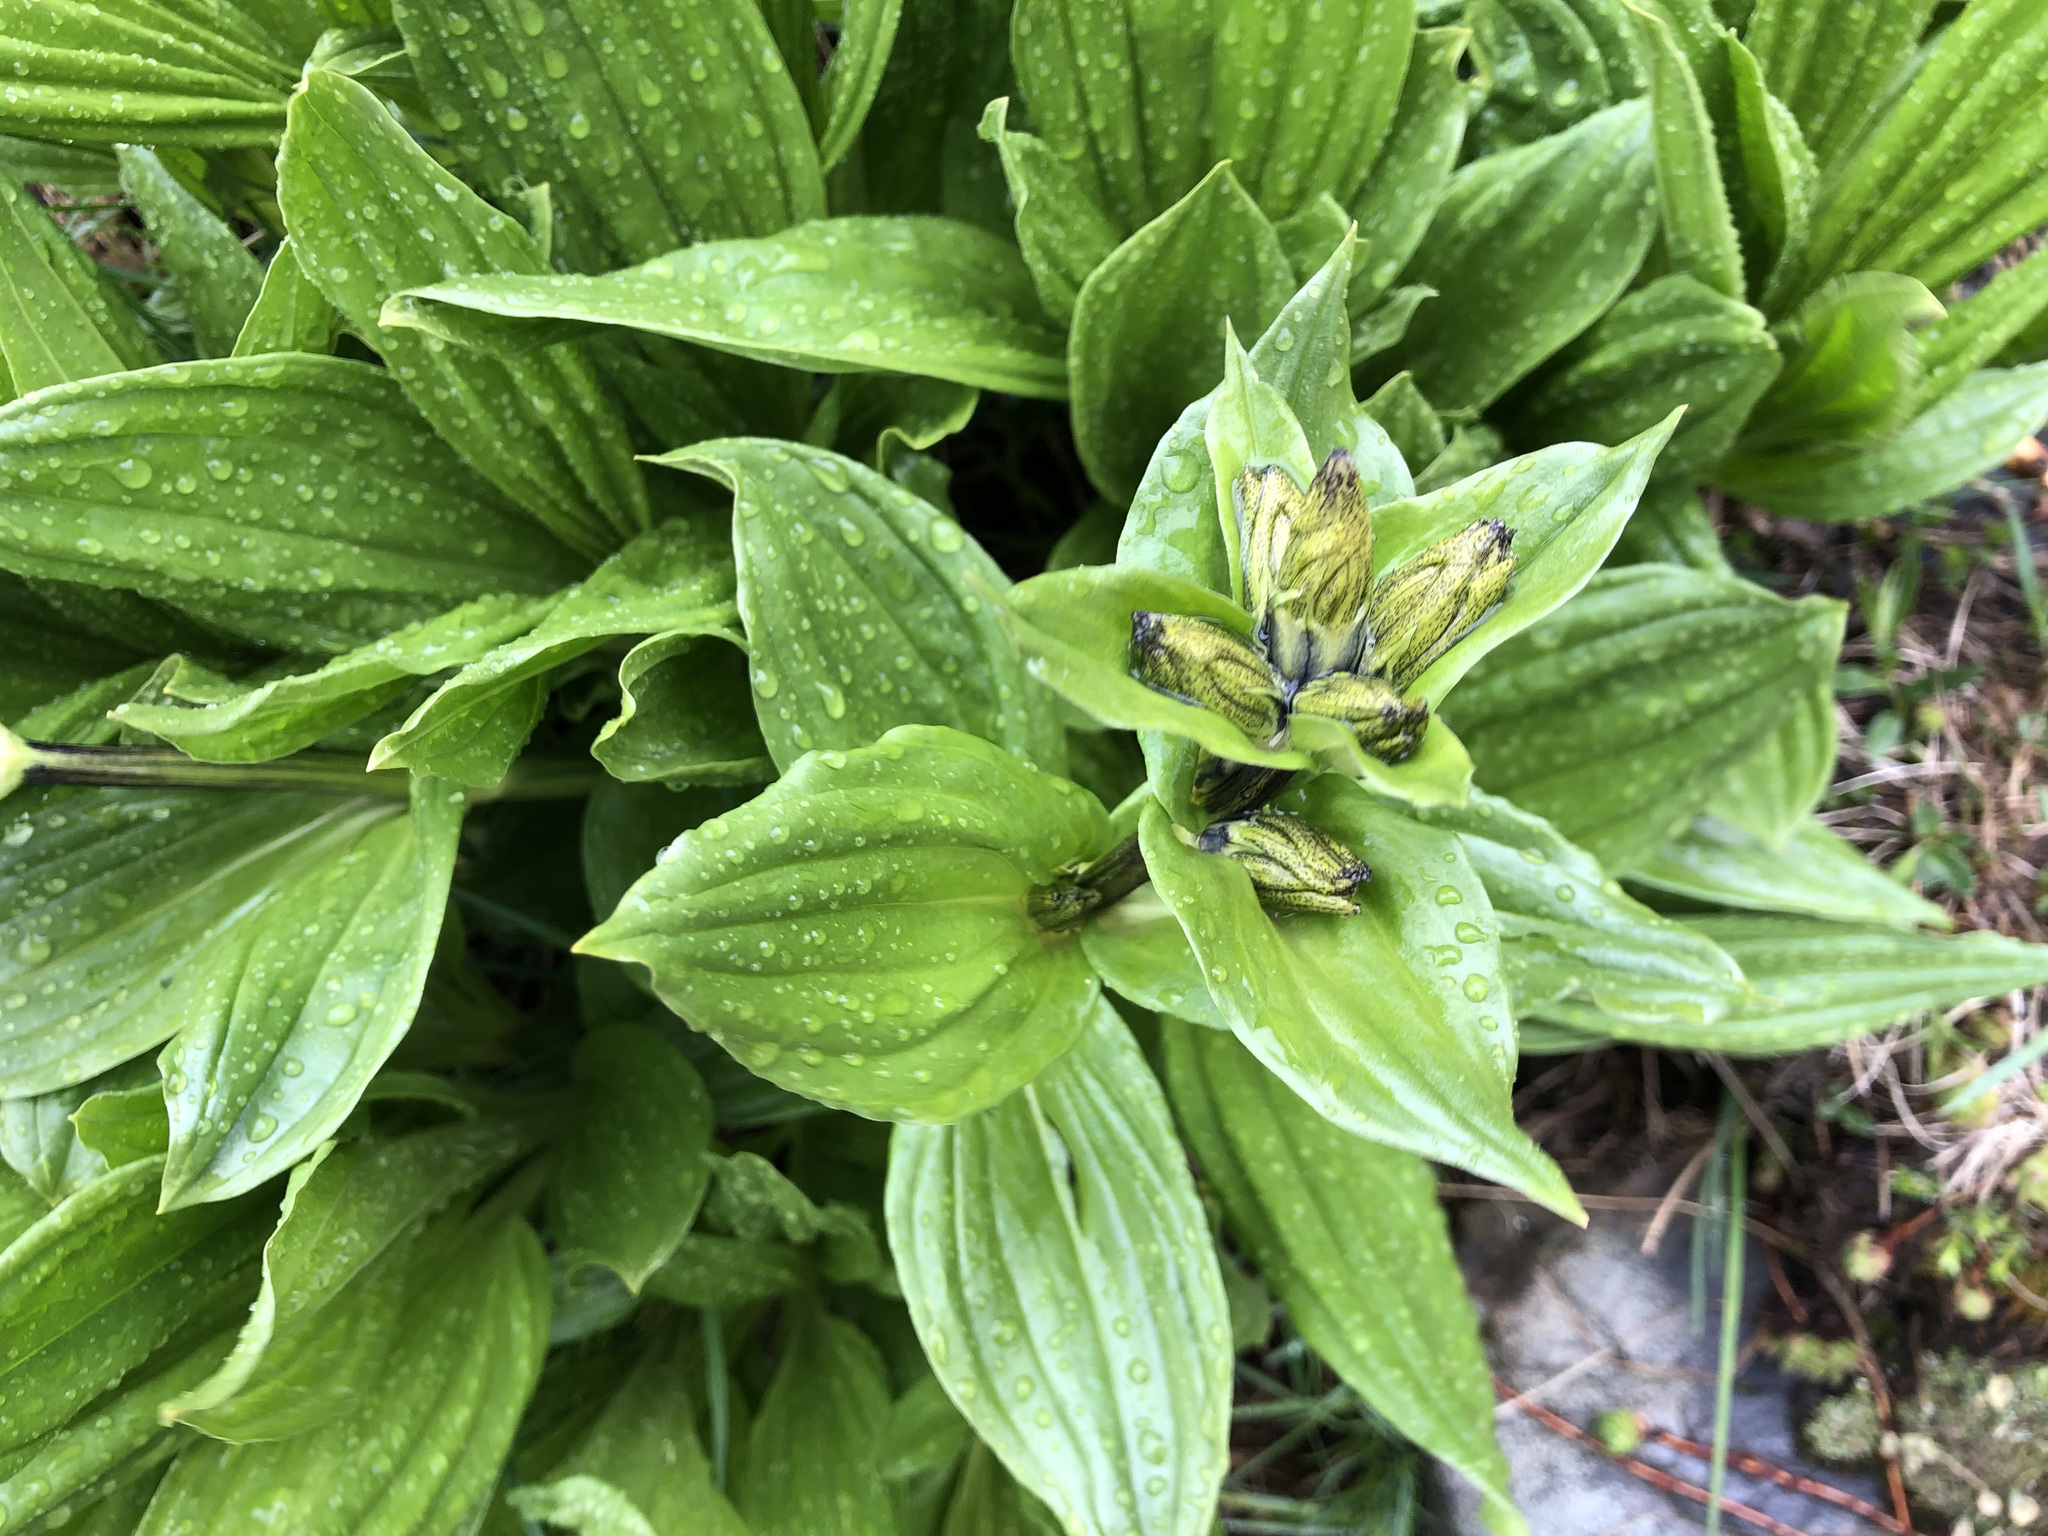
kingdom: Plantae
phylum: Tracheophyta
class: Magnoliopsida
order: Gentianales
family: Gentianaceae
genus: Gentiana
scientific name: Gentiana punctata
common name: Spotted gentian
